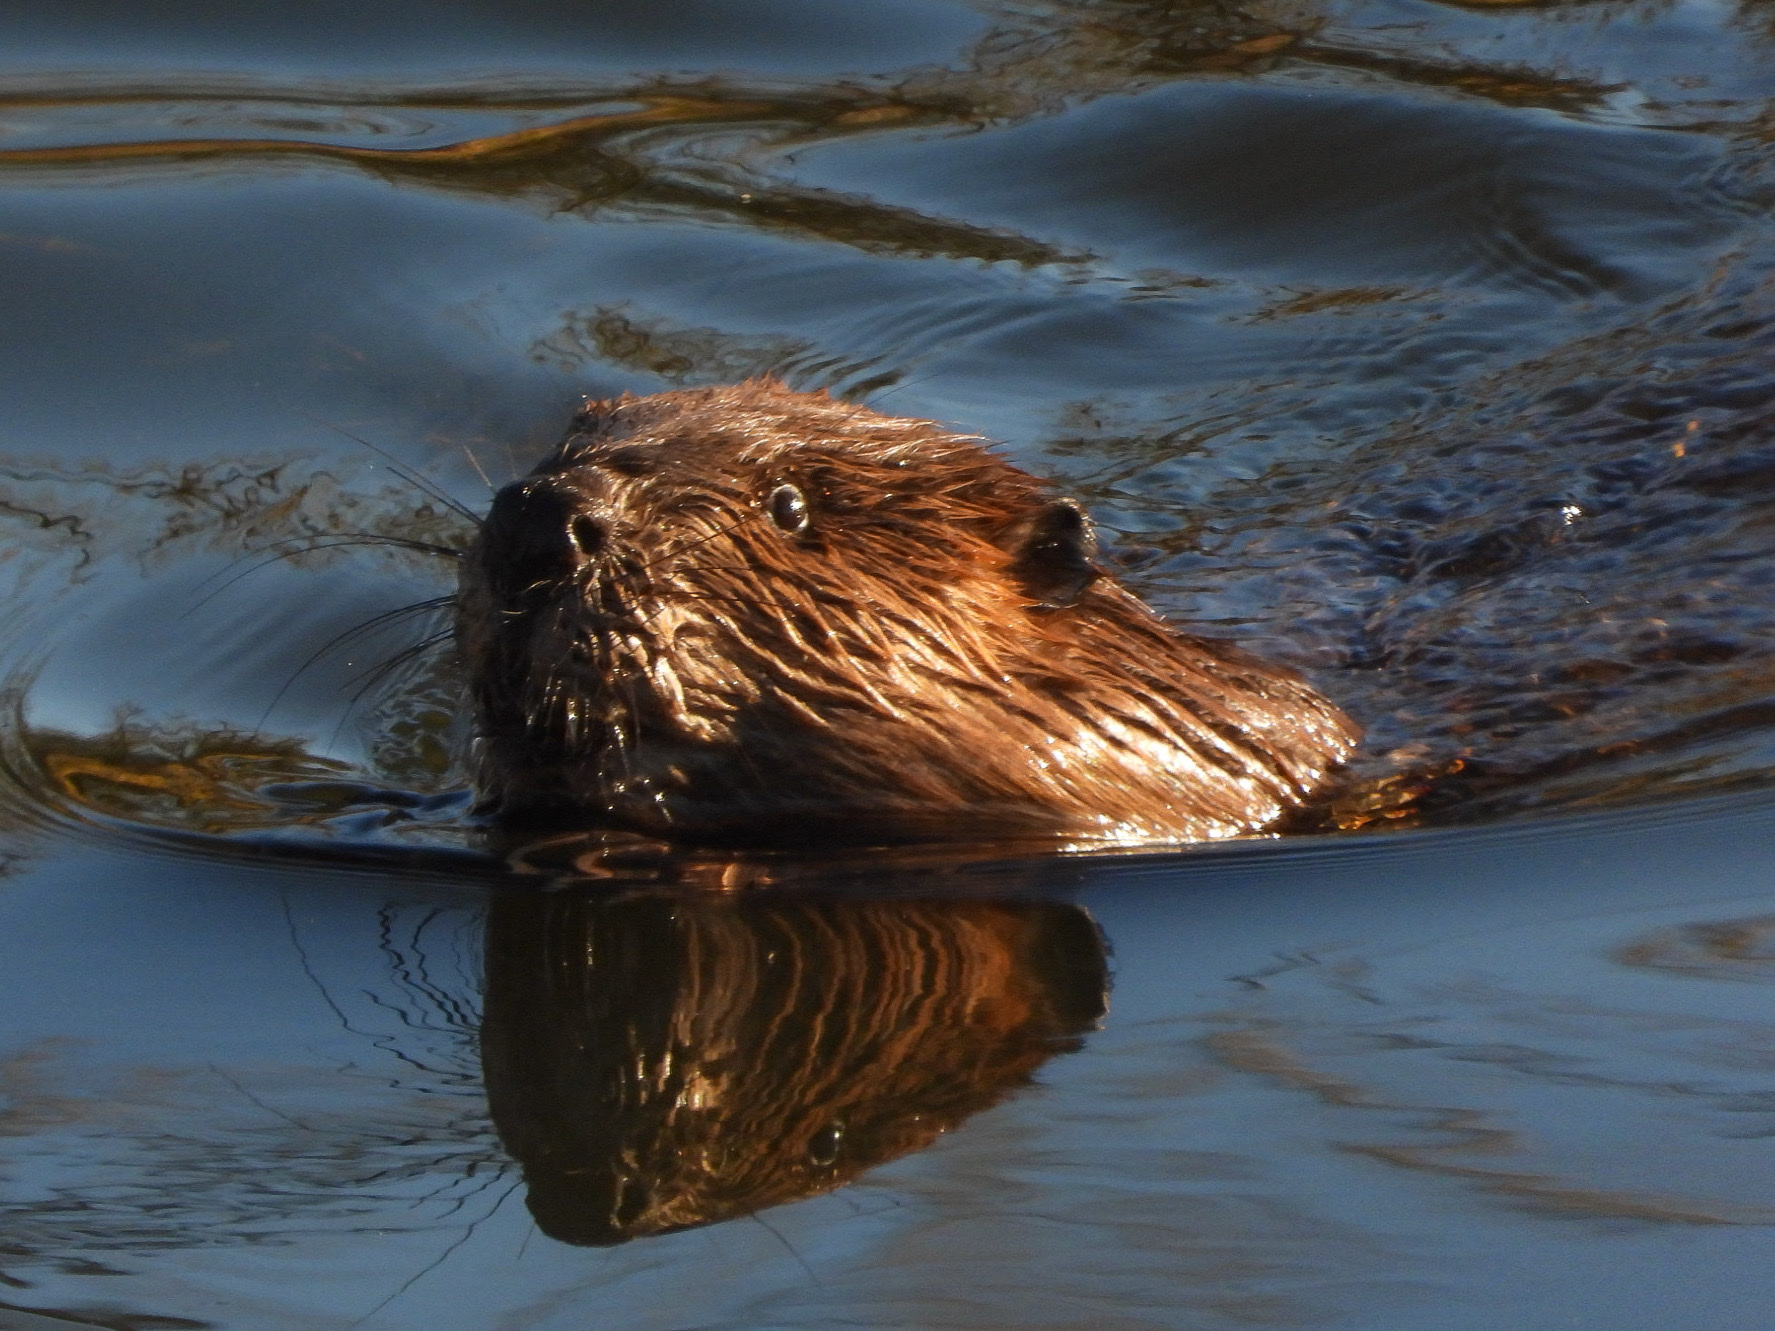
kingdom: Animalia
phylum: Chordata
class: Mammalia
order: Rodentia
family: Castoridae
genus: Castor
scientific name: Castor canadensis
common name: American beaver
